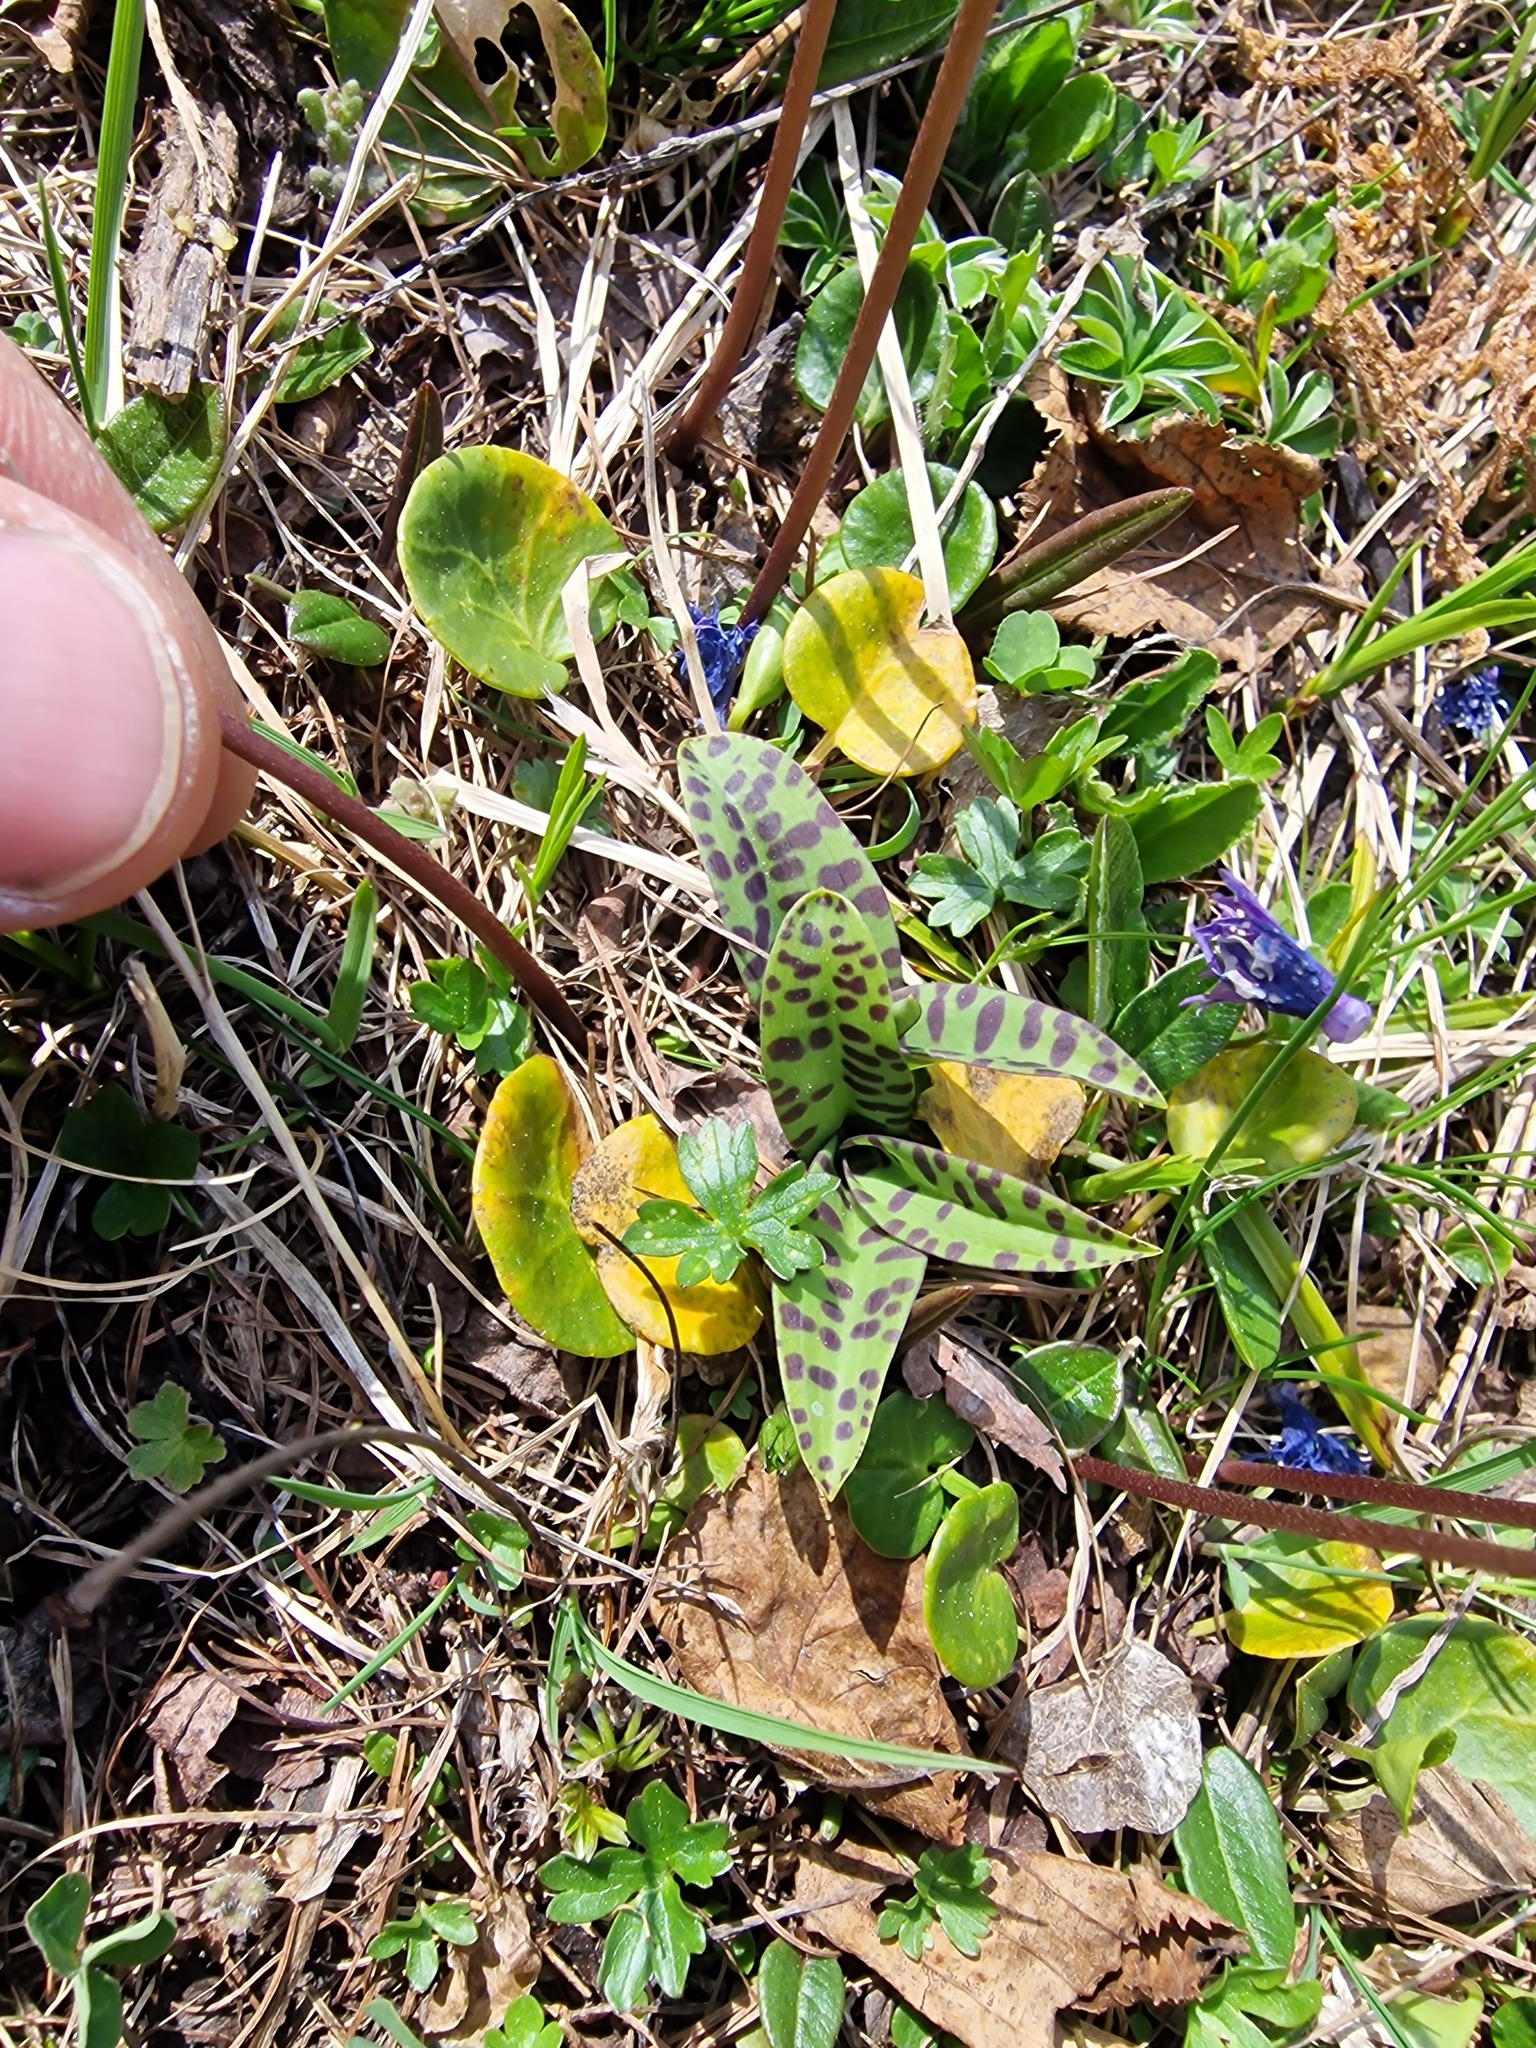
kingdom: Plantae
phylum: Tracheophyta
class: Magnoliopsida
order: Ericales
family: Primulaceae
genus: Soldanella
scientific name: Soldanella alpina
